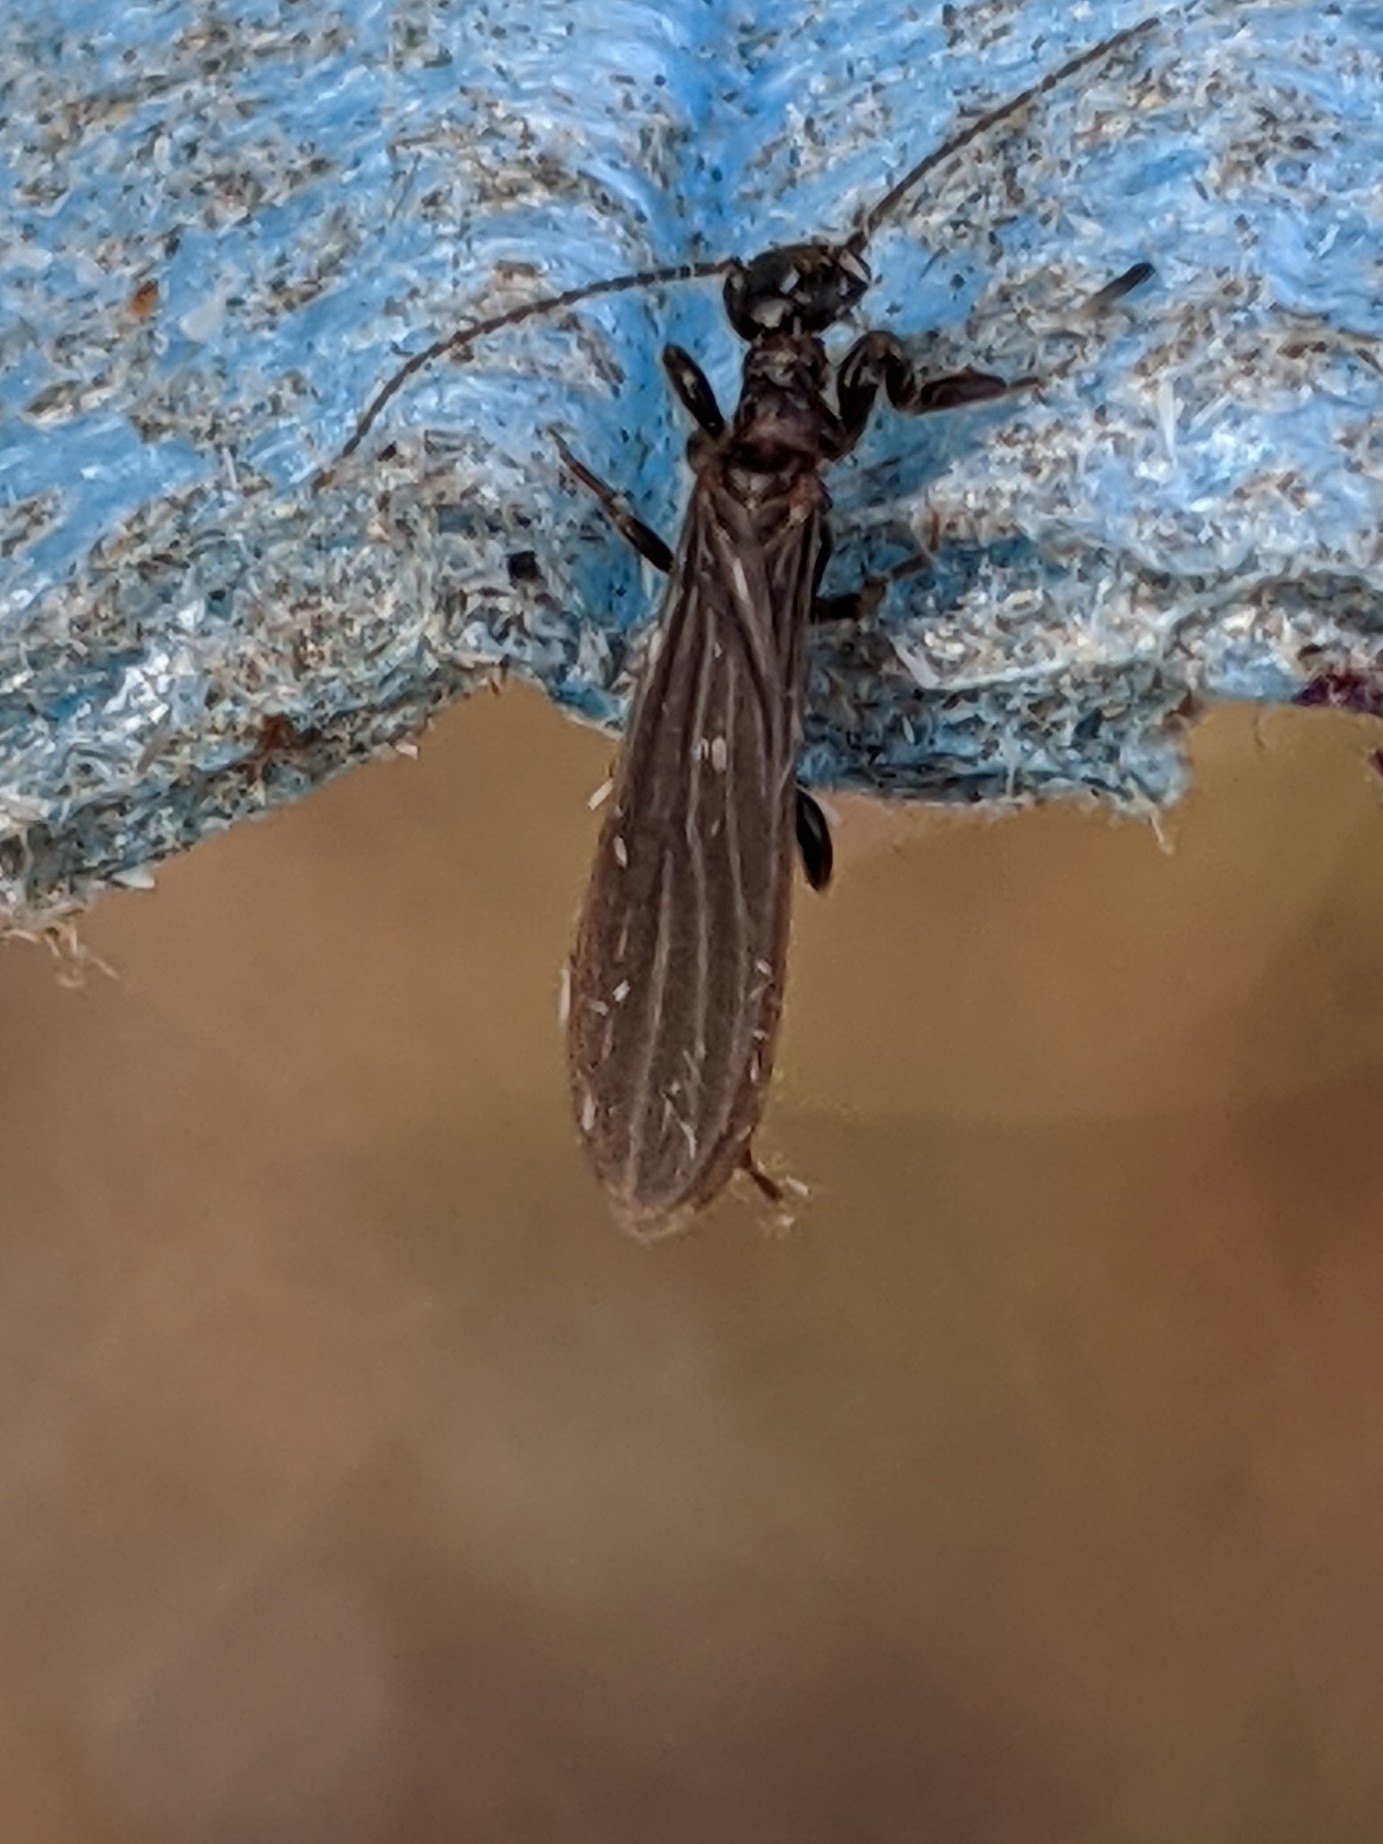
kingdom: Animalia
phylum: Arthropoda
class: Insecta
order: Embioptera
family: Oligotomidae
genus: Oligotoma
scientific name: Oligotoma nigra
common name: Black webspinner
